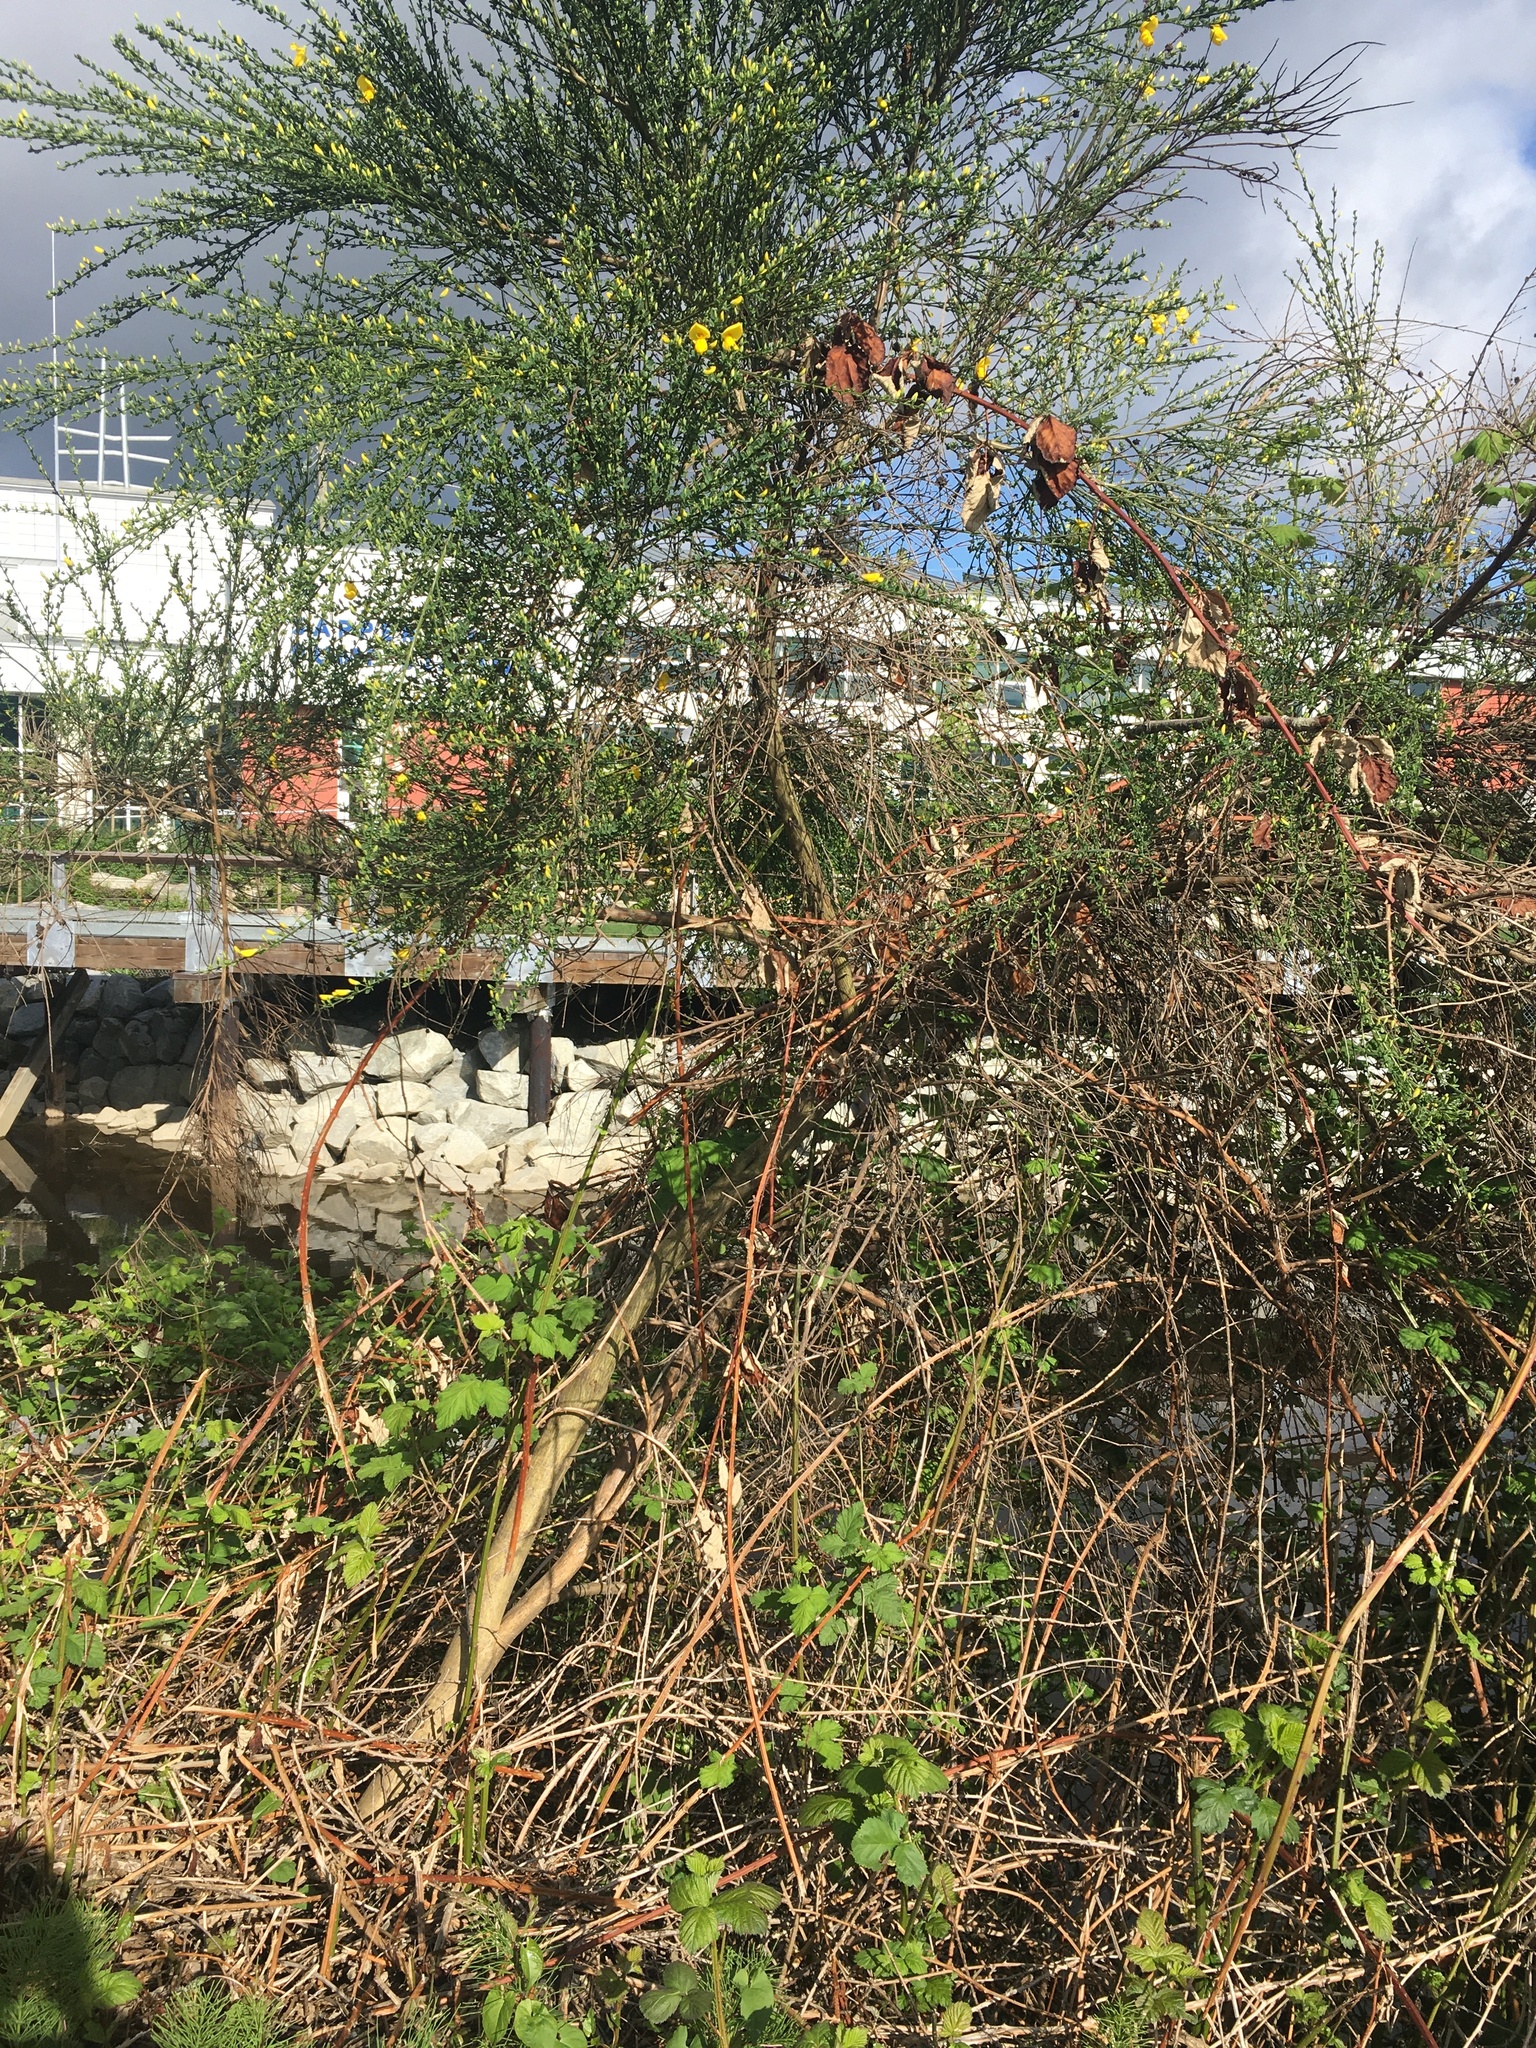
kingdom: Plantae
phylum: Tracheophyta
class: Magnoliopsida
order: Fabales
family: Fabaceae
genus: Cytisus
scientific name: Cytisus scoparius
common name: Scotch broom
